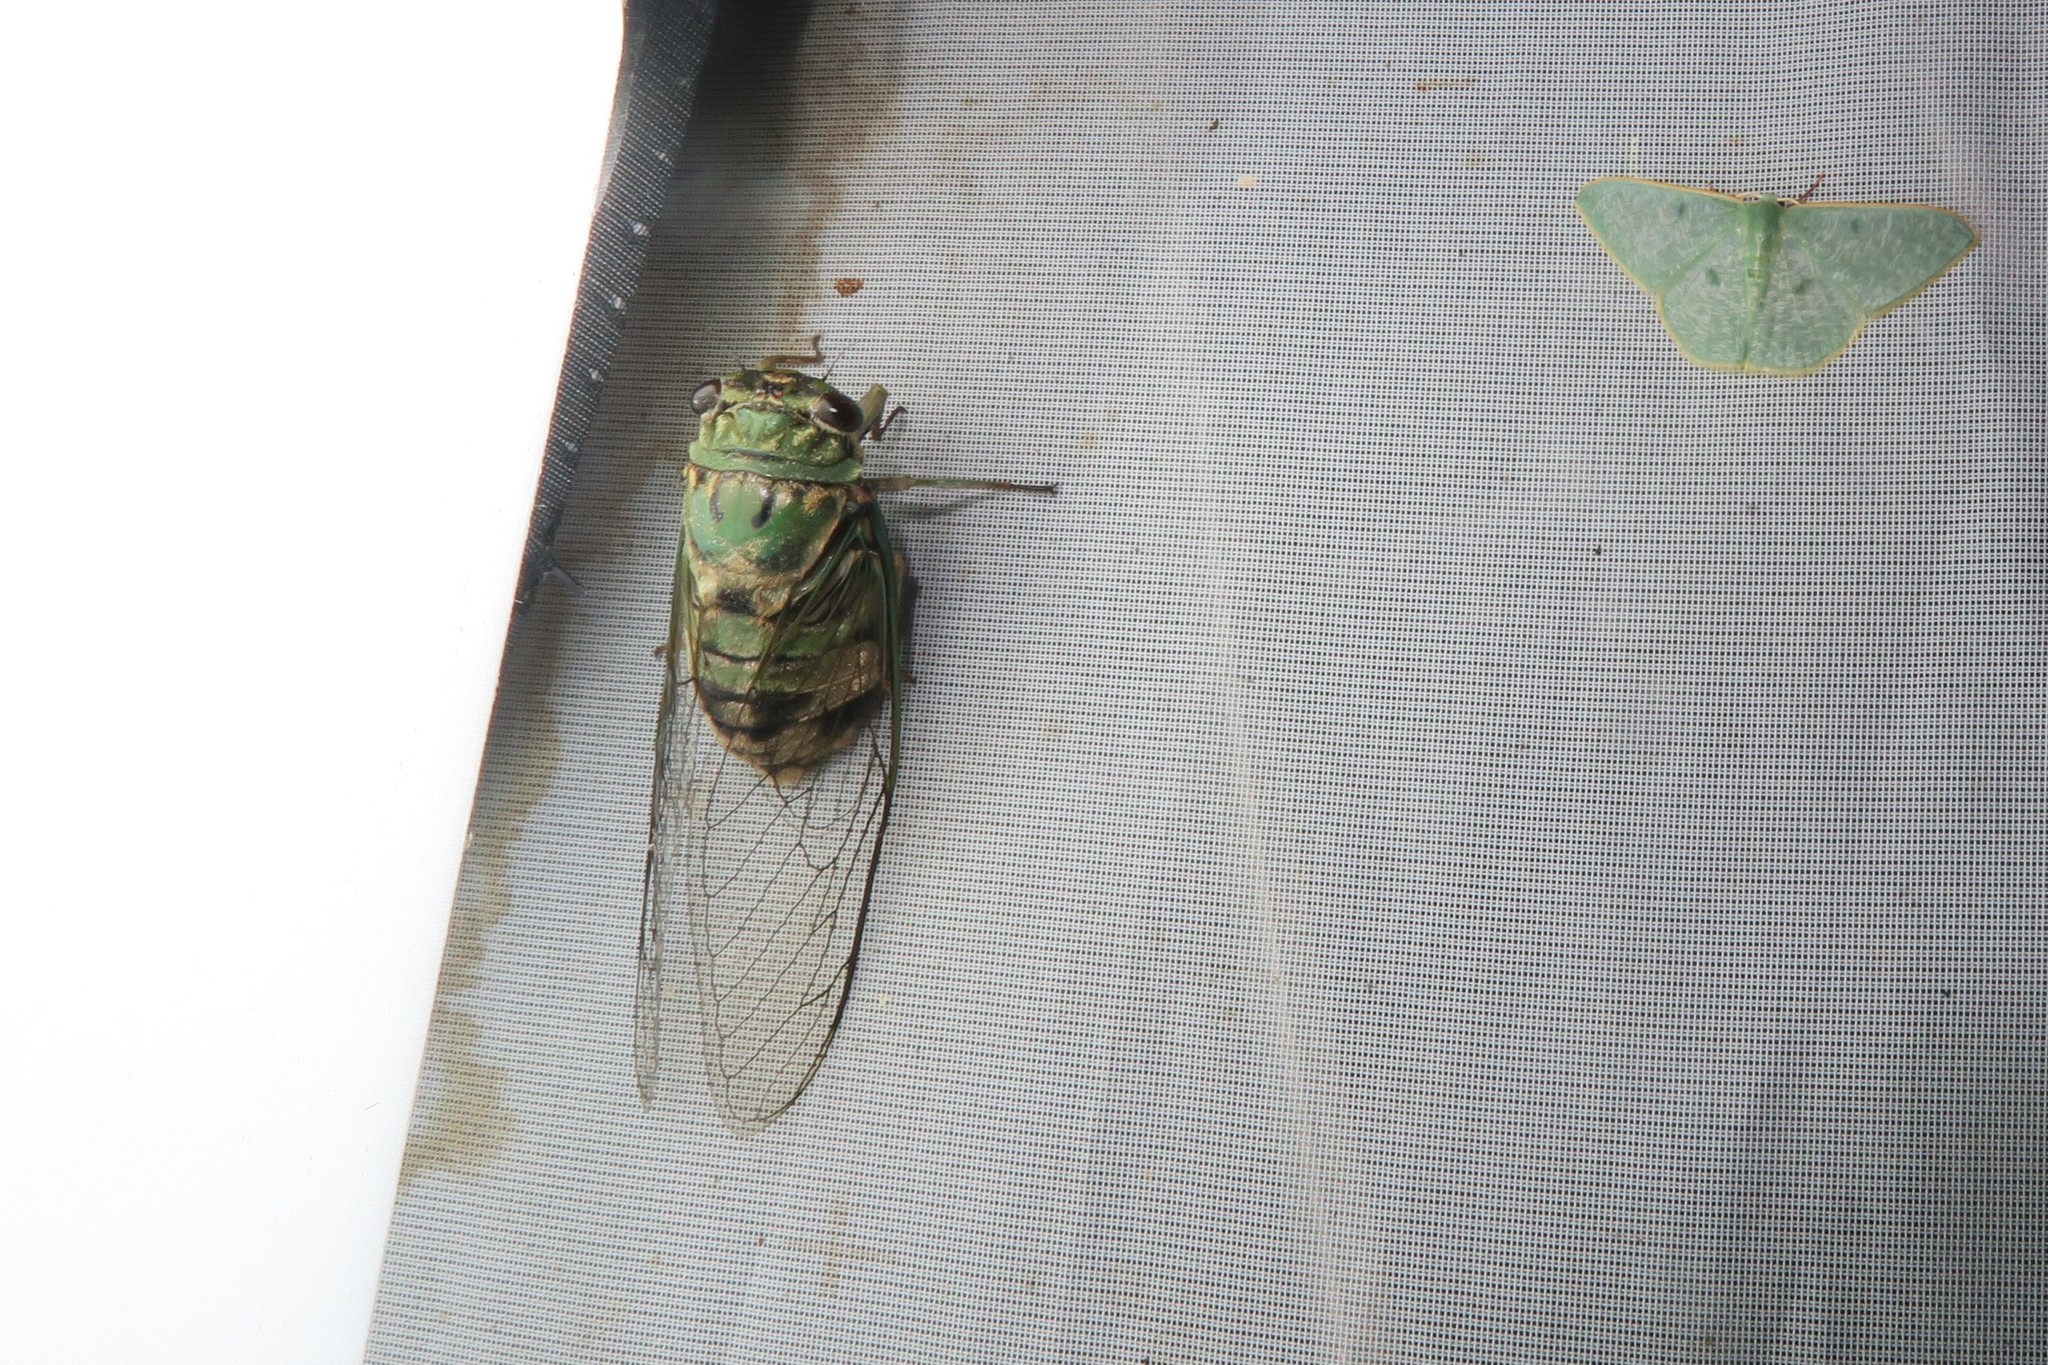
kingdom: Animalia
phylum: Arthropoda
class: Insecta
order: Hemiptera
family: Cicadidae
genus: Guyalna
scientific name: Guyalna distanti
